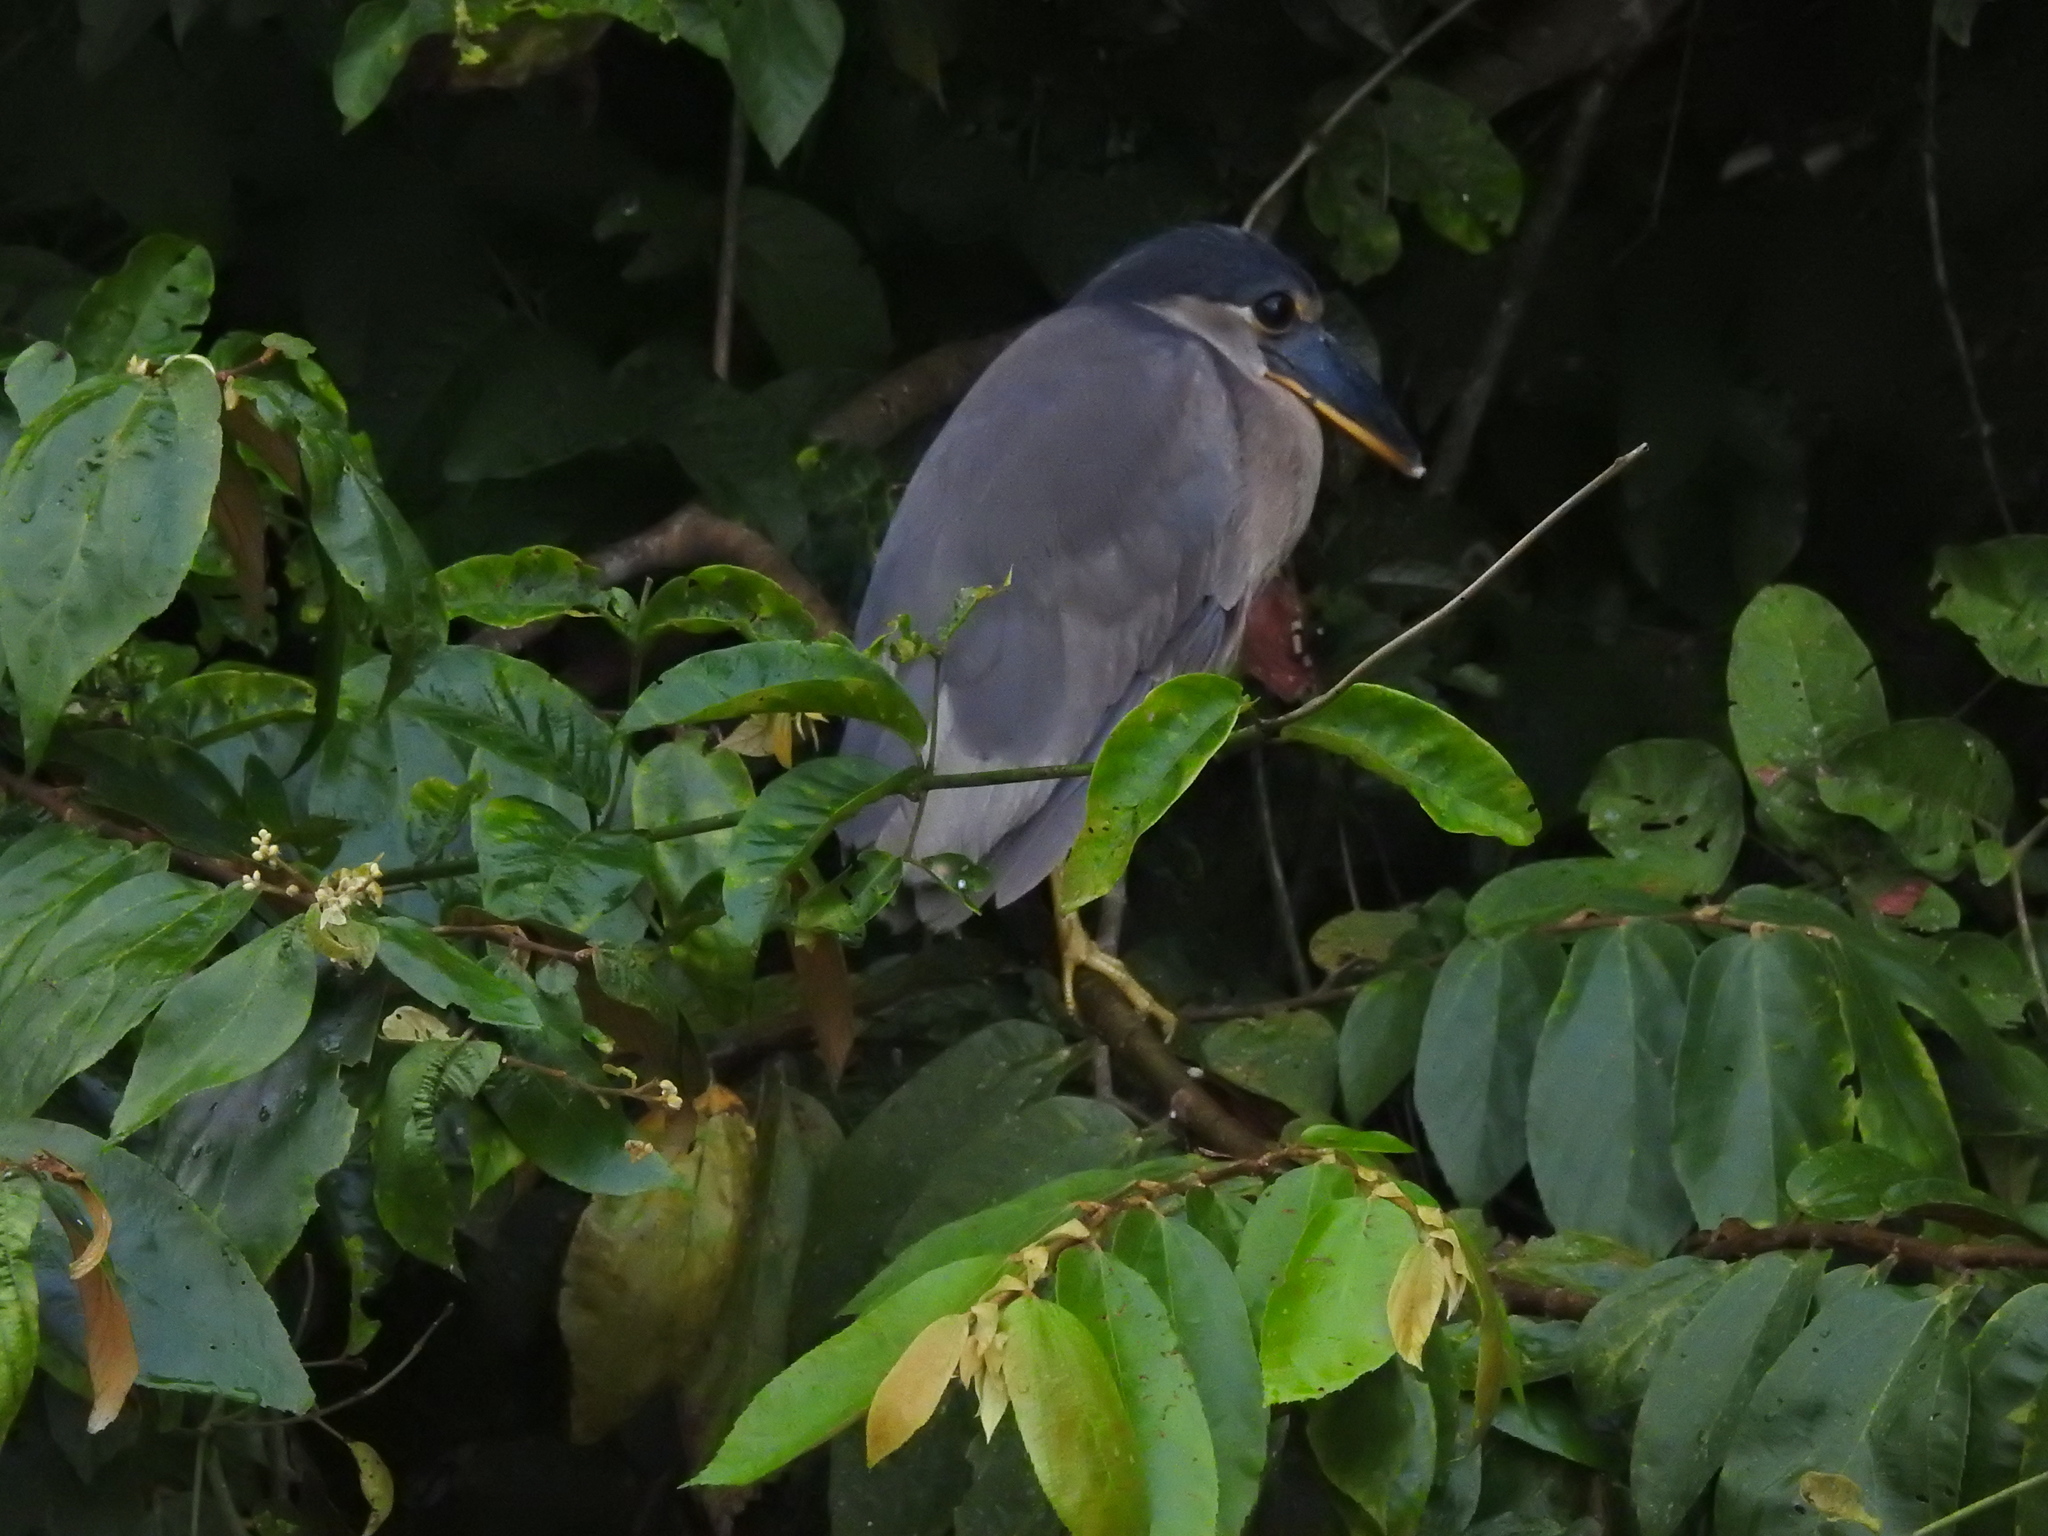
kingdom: Animalia
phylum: Chordata
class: Aves
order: Pelecaniformes
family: Ardeidae
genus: Cochlearius
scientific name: Cochlearius cochlearius
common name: Boat-billed heron
